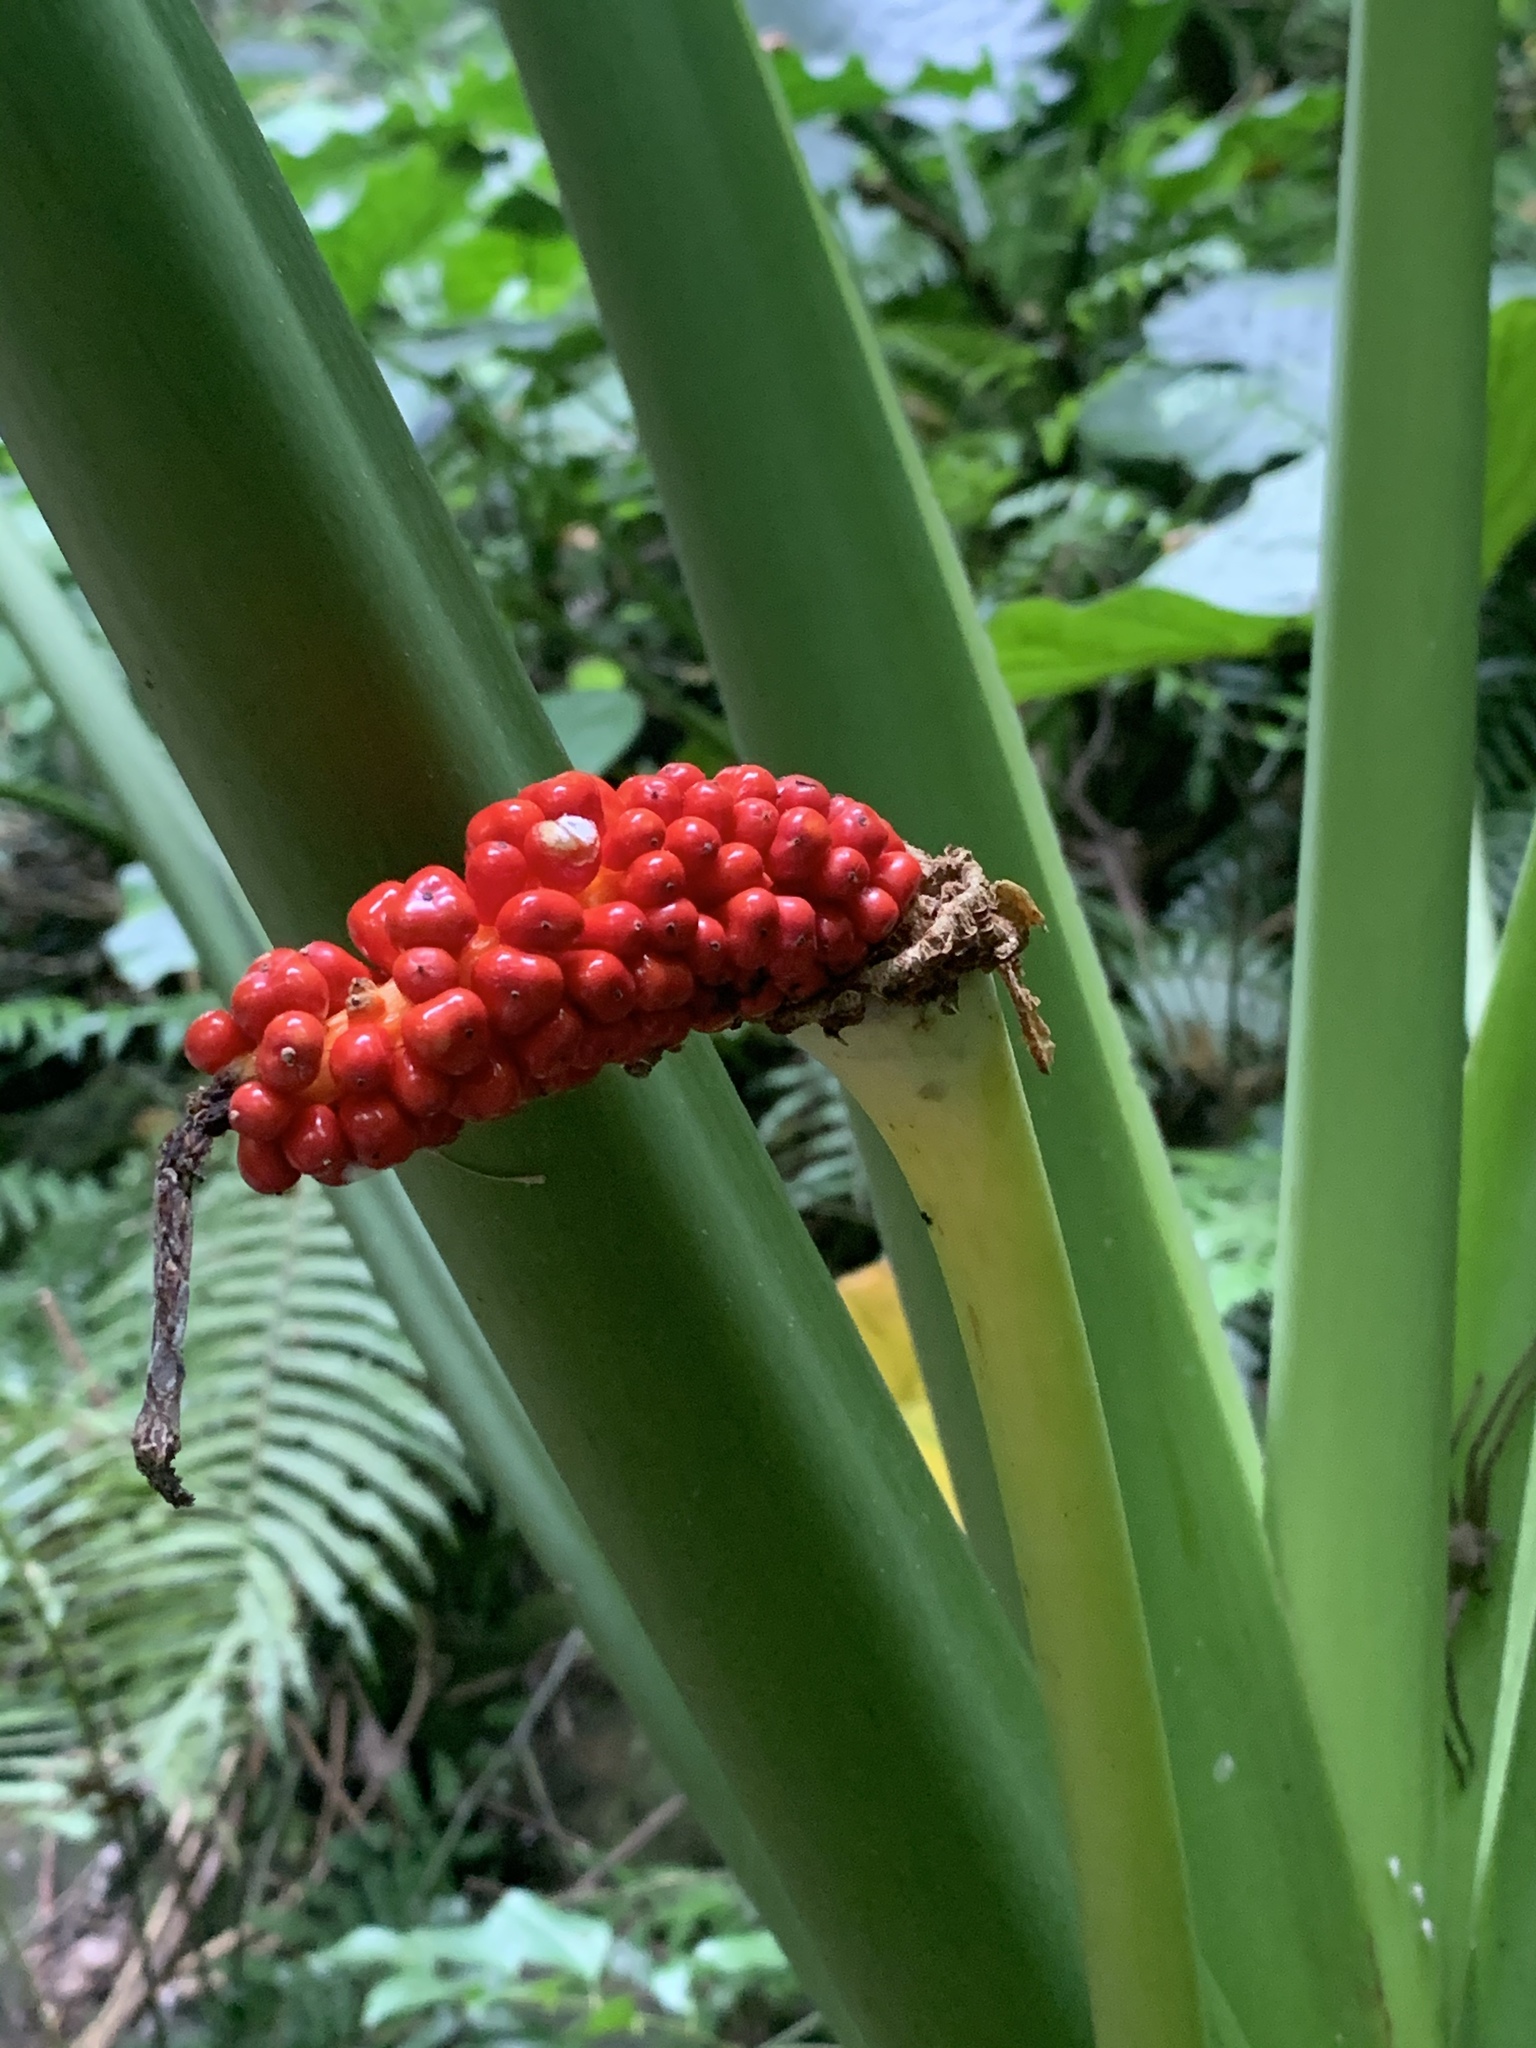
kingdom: Plantae
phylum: Tracheophyta
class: Liliopsida
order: Alismatales
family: Araceae
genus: Alocasia
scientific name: Alocasia odora
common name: Asian taro
